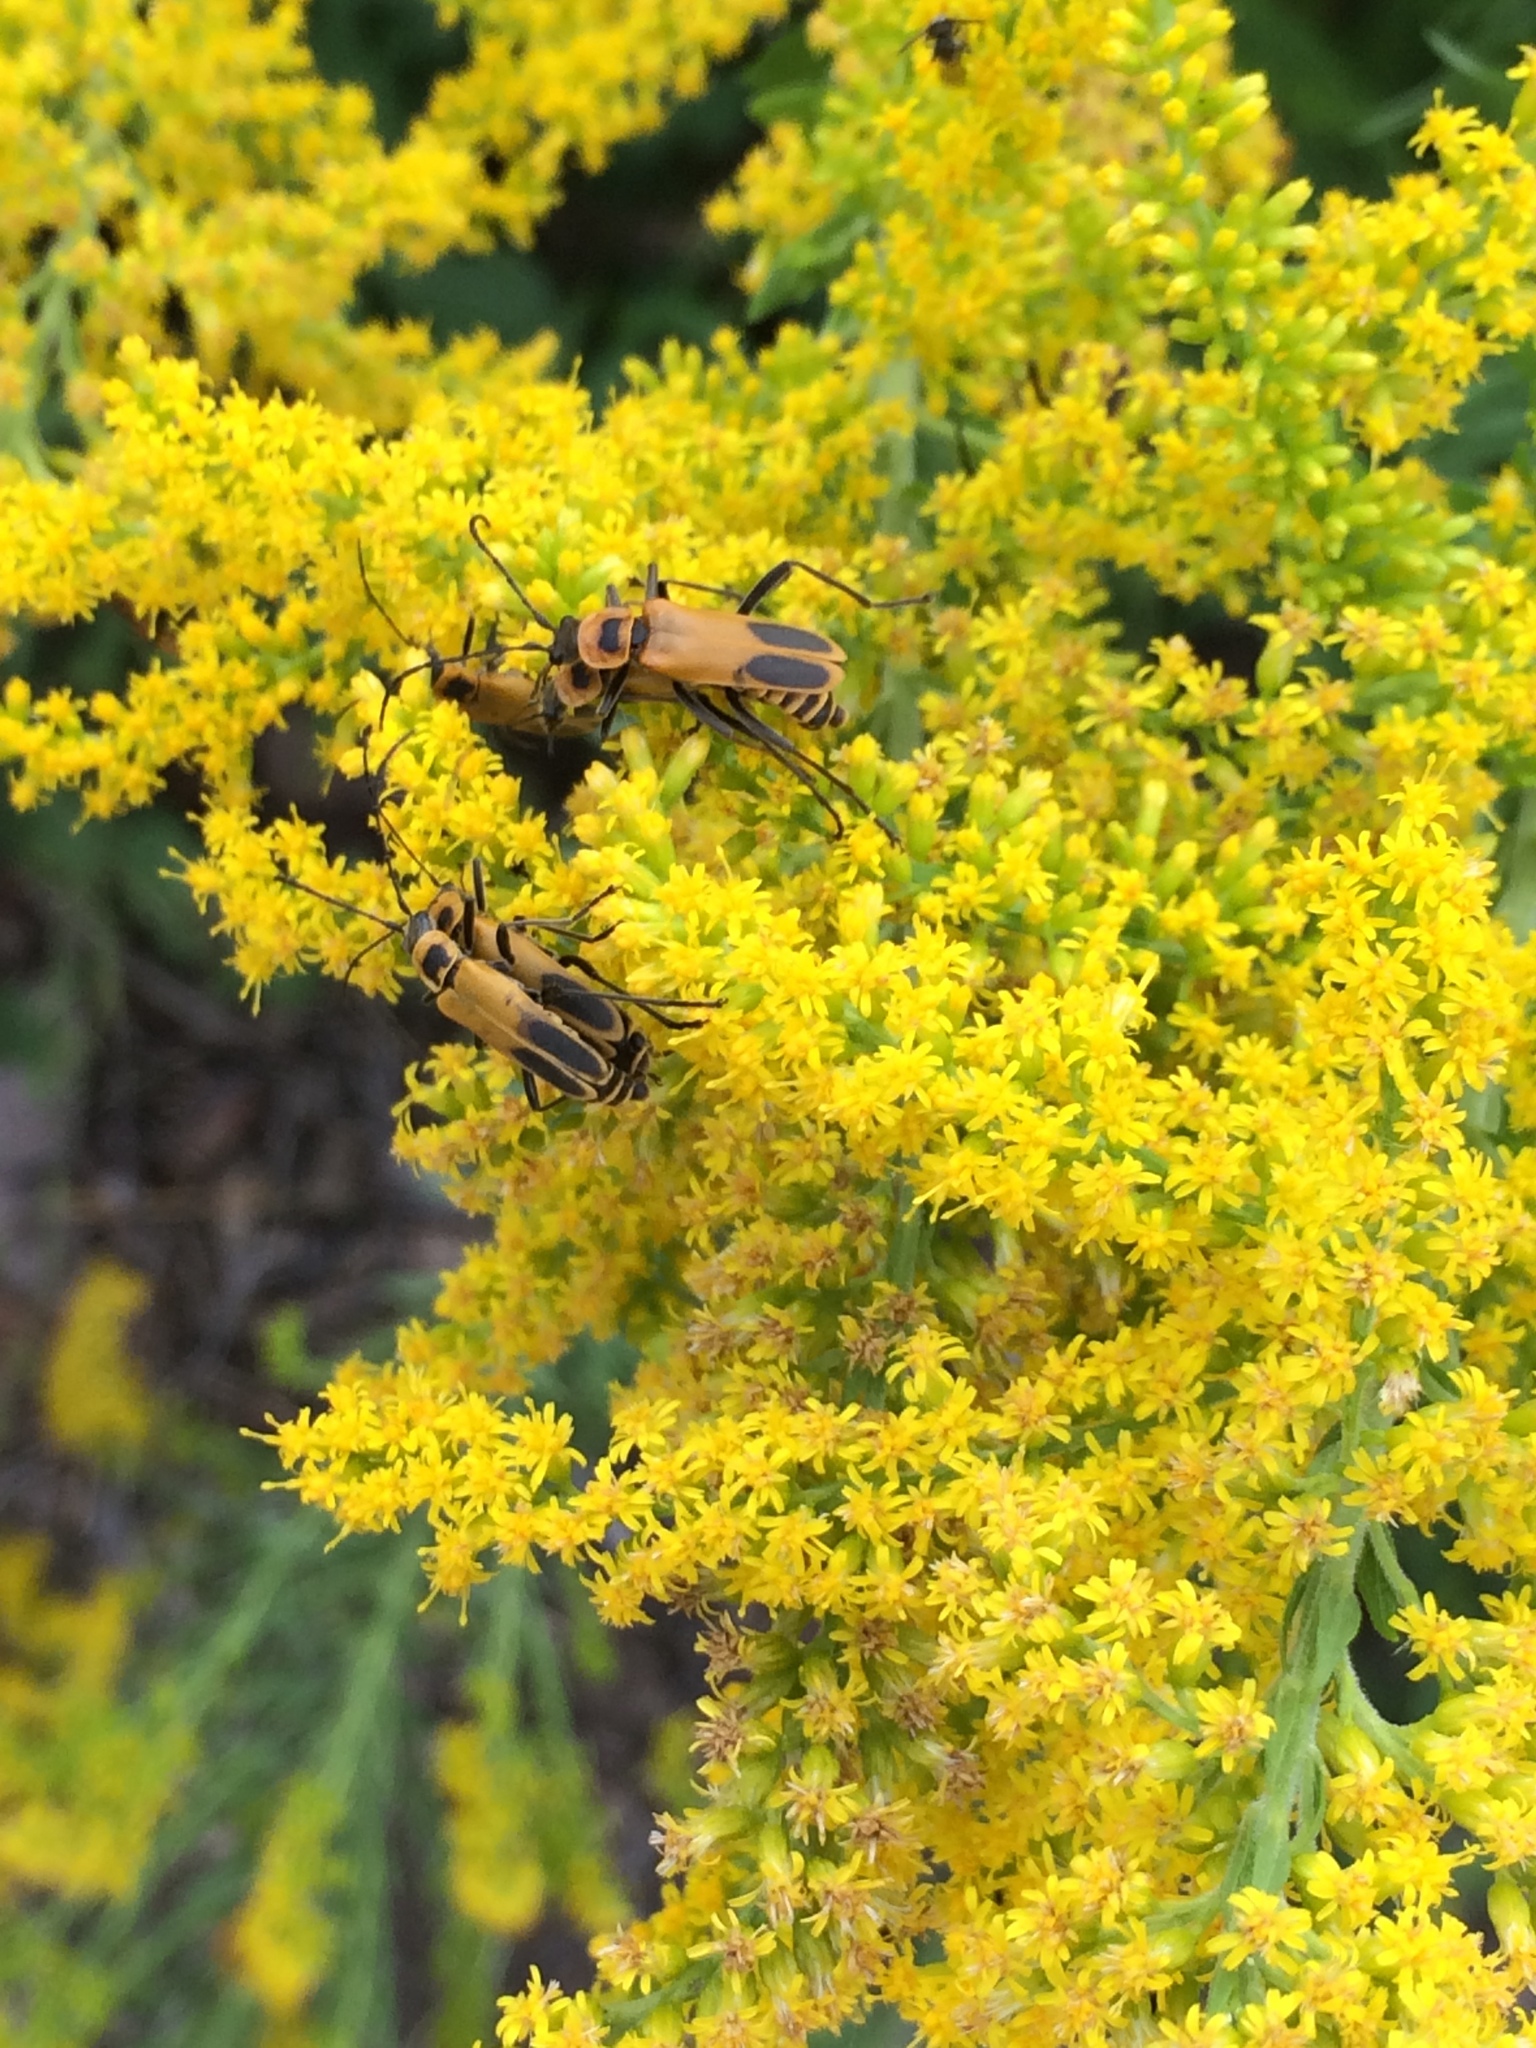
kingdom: Animalia
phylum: Arthropoda
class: Insecta
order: Coleoptera
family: Cantharidae
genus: Chauliognathus
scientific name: Chauliognathus pensylvanicus
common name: Goldenrod soldier beetle
